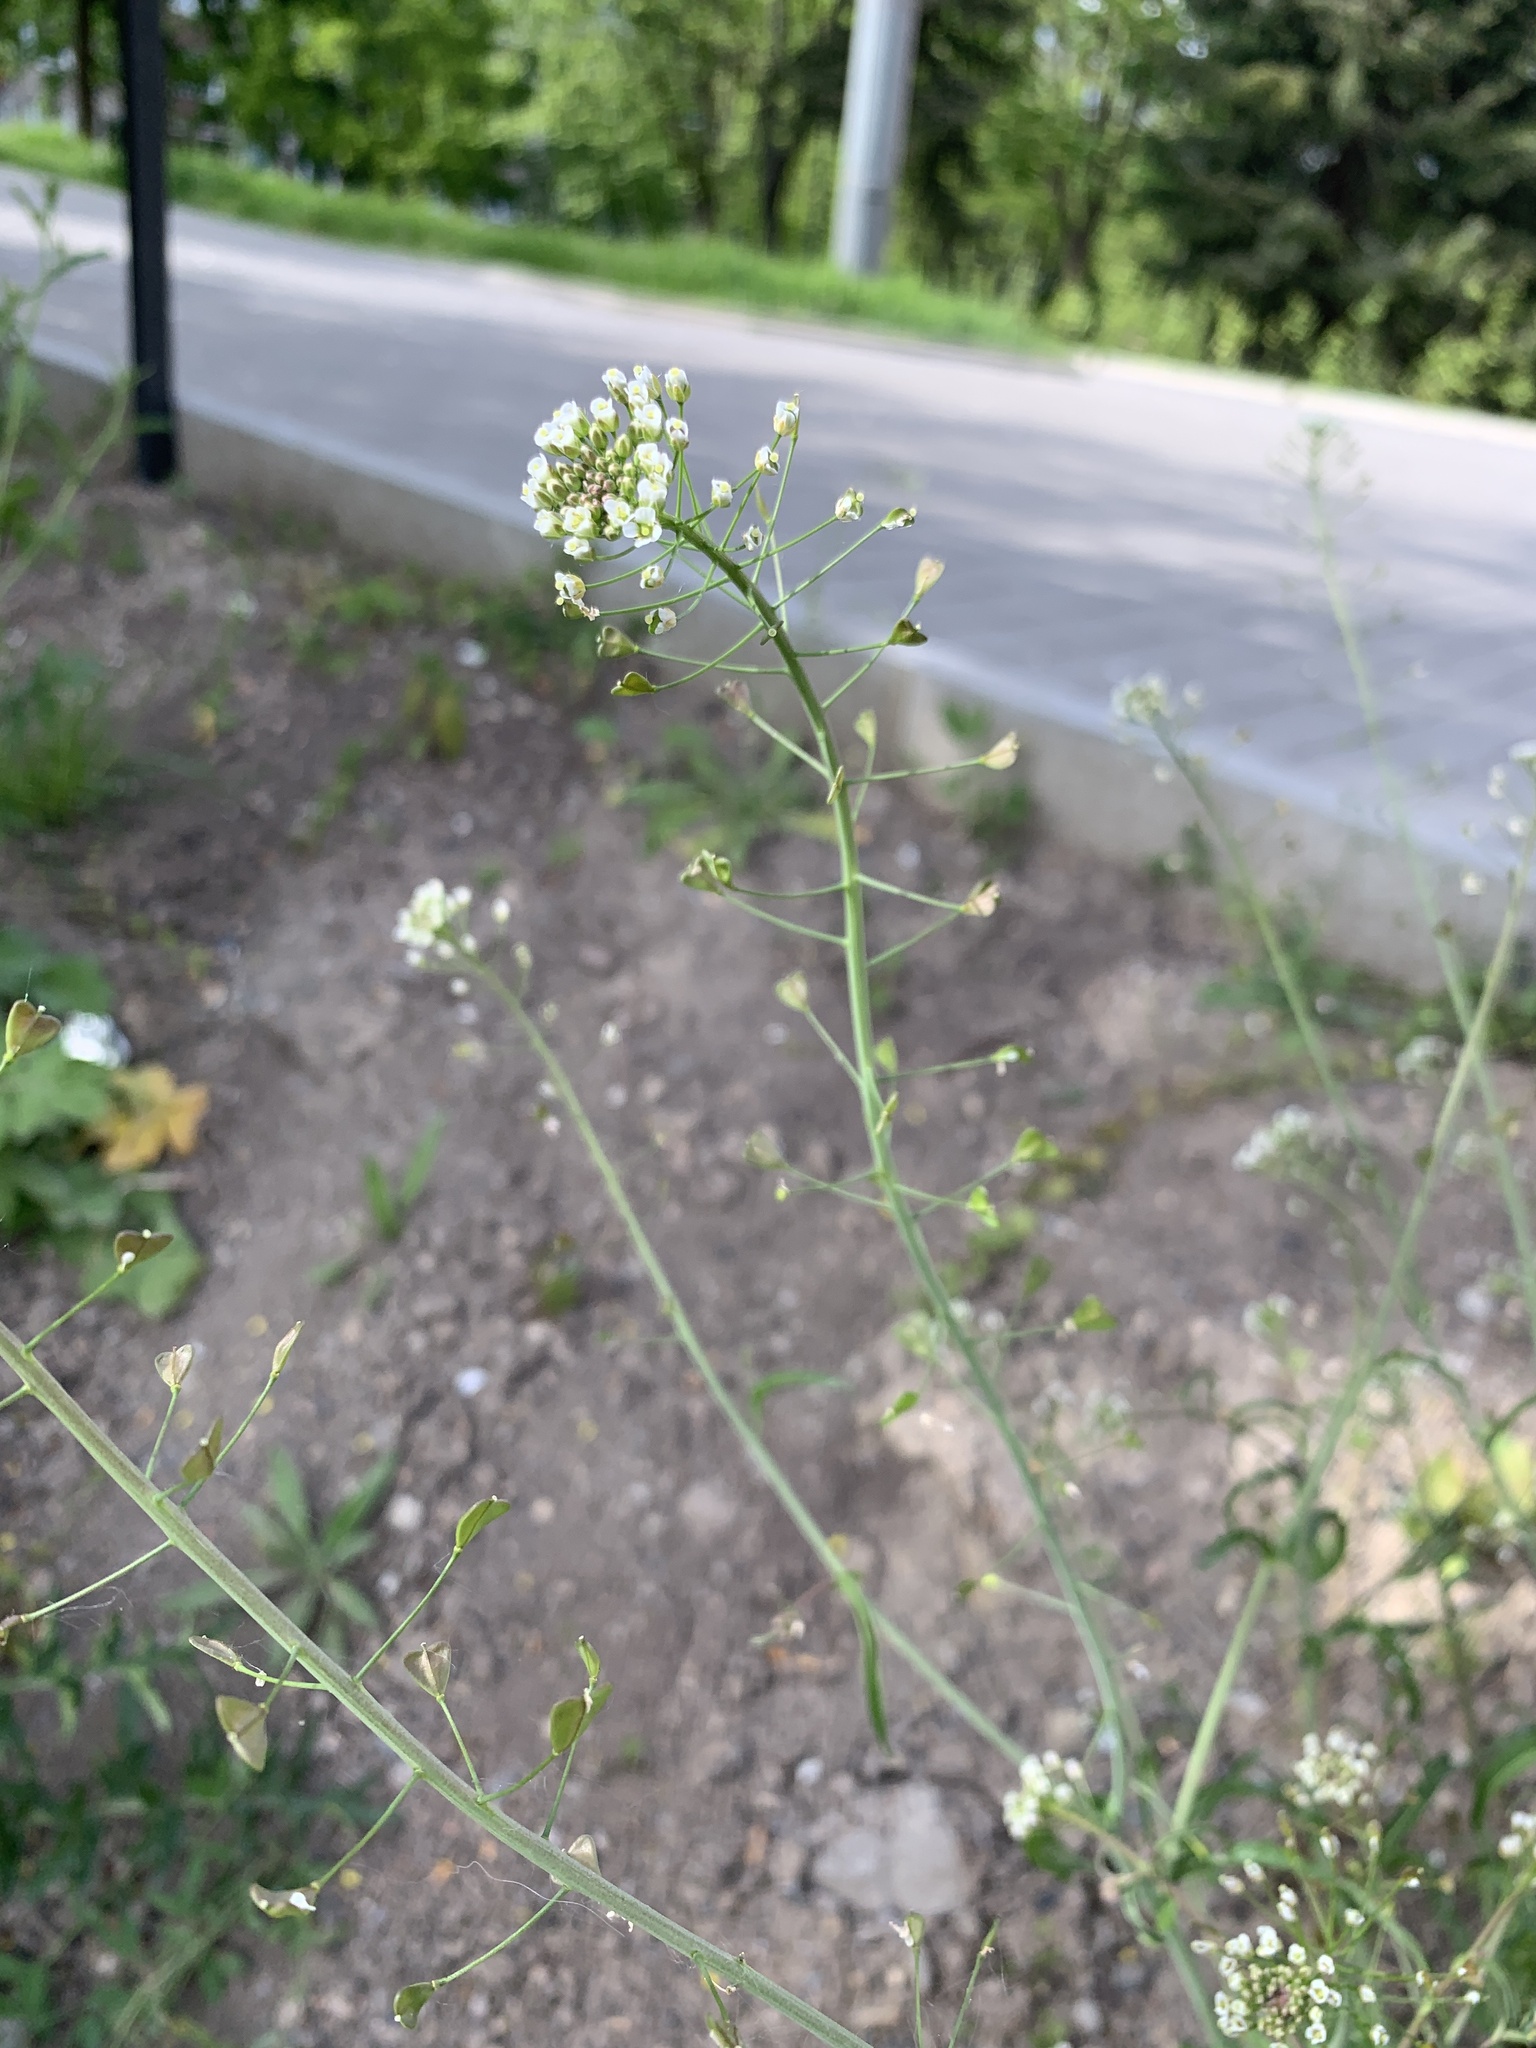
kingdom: Plantae
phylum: Tracheophyta
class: Magnoliopsida
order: Brassicales
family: Brassicaceae
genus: Capsella
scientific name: Capsella bursa-pastoris
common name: Shepherd's purse
